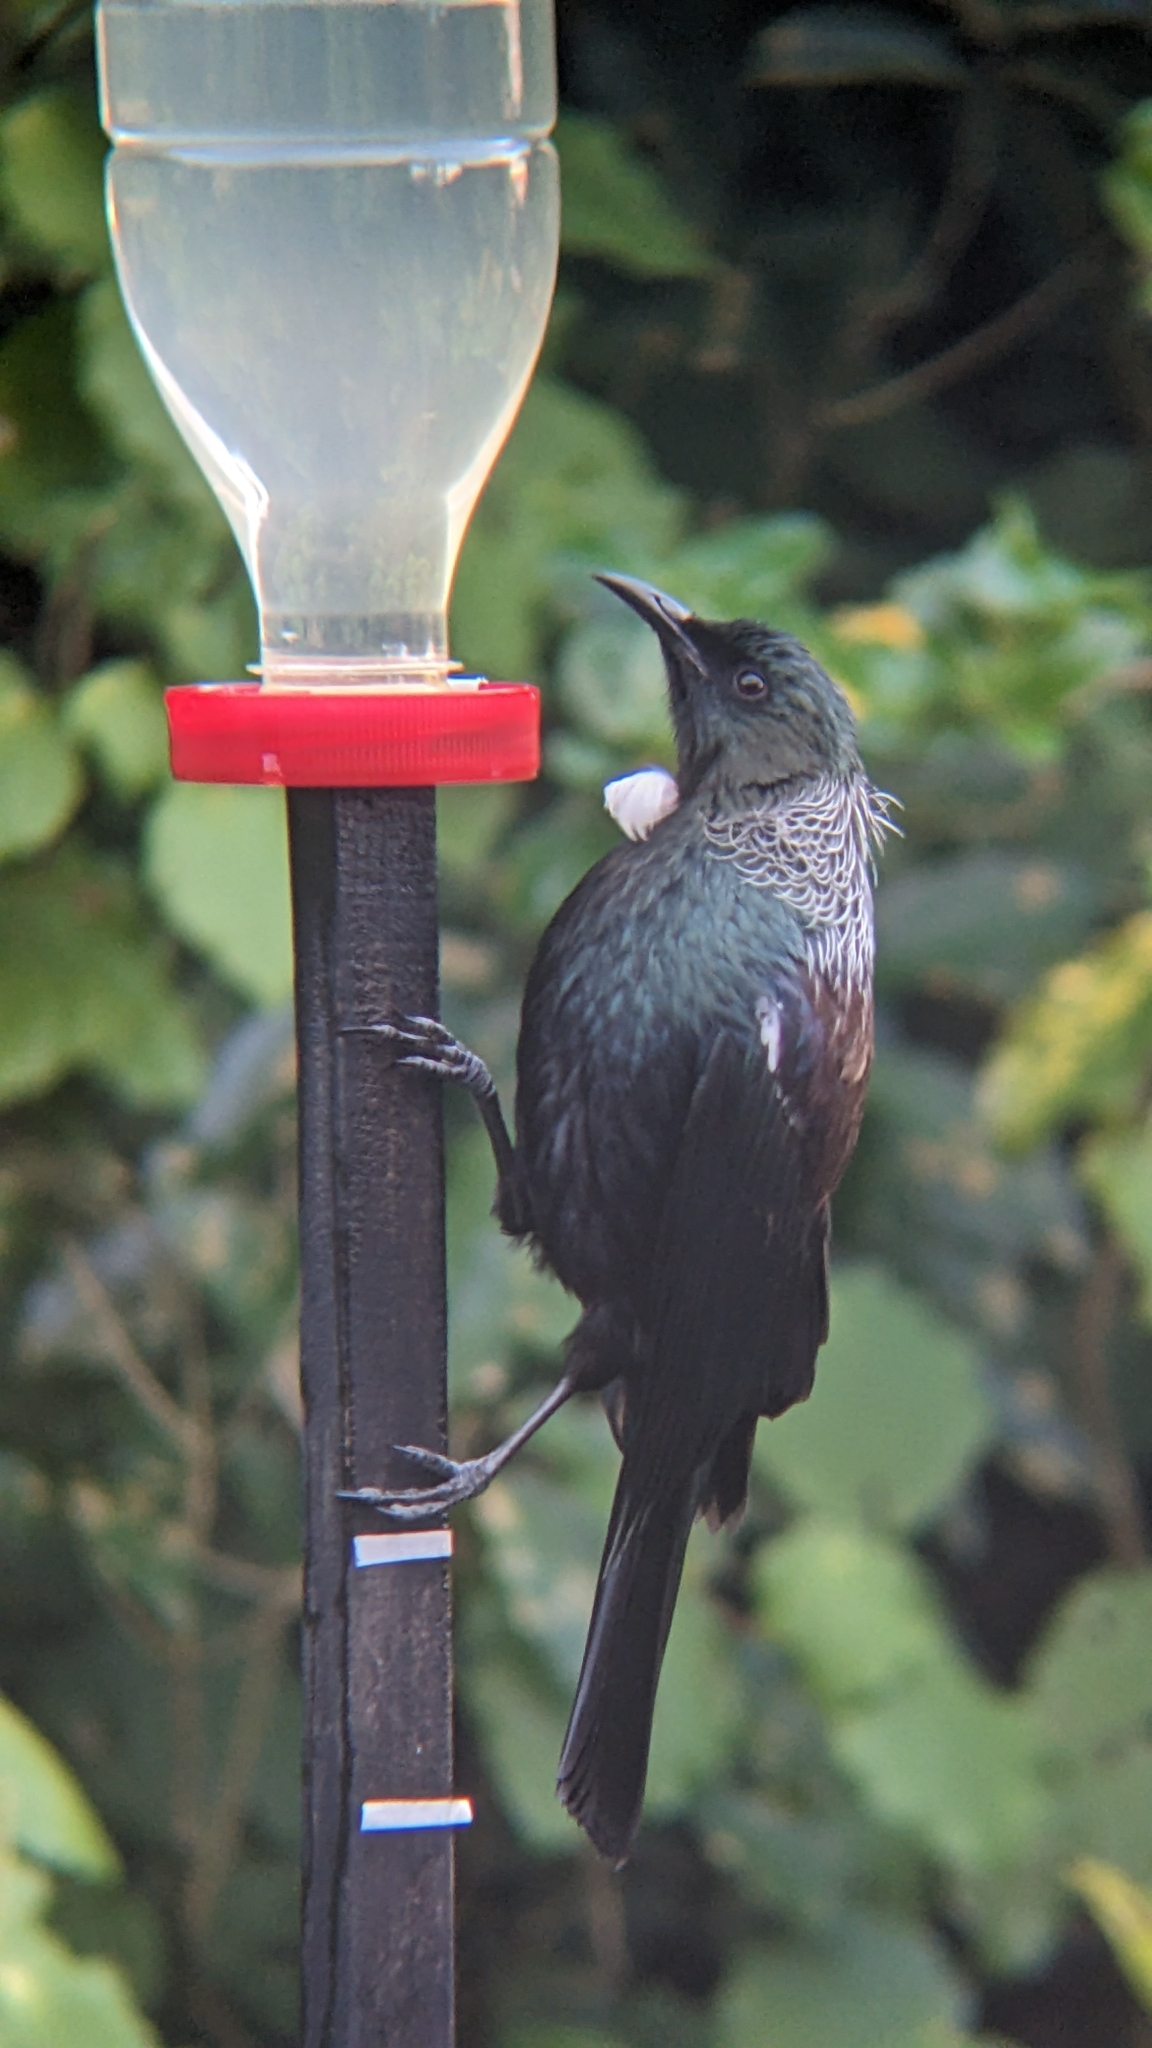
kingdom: Animalia
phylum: Chordata
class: Aves
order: Passeriformes
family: Meliphagidae
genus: Prosthemadera
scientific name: Prosthemadera novaeseelandiae
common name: Tui
